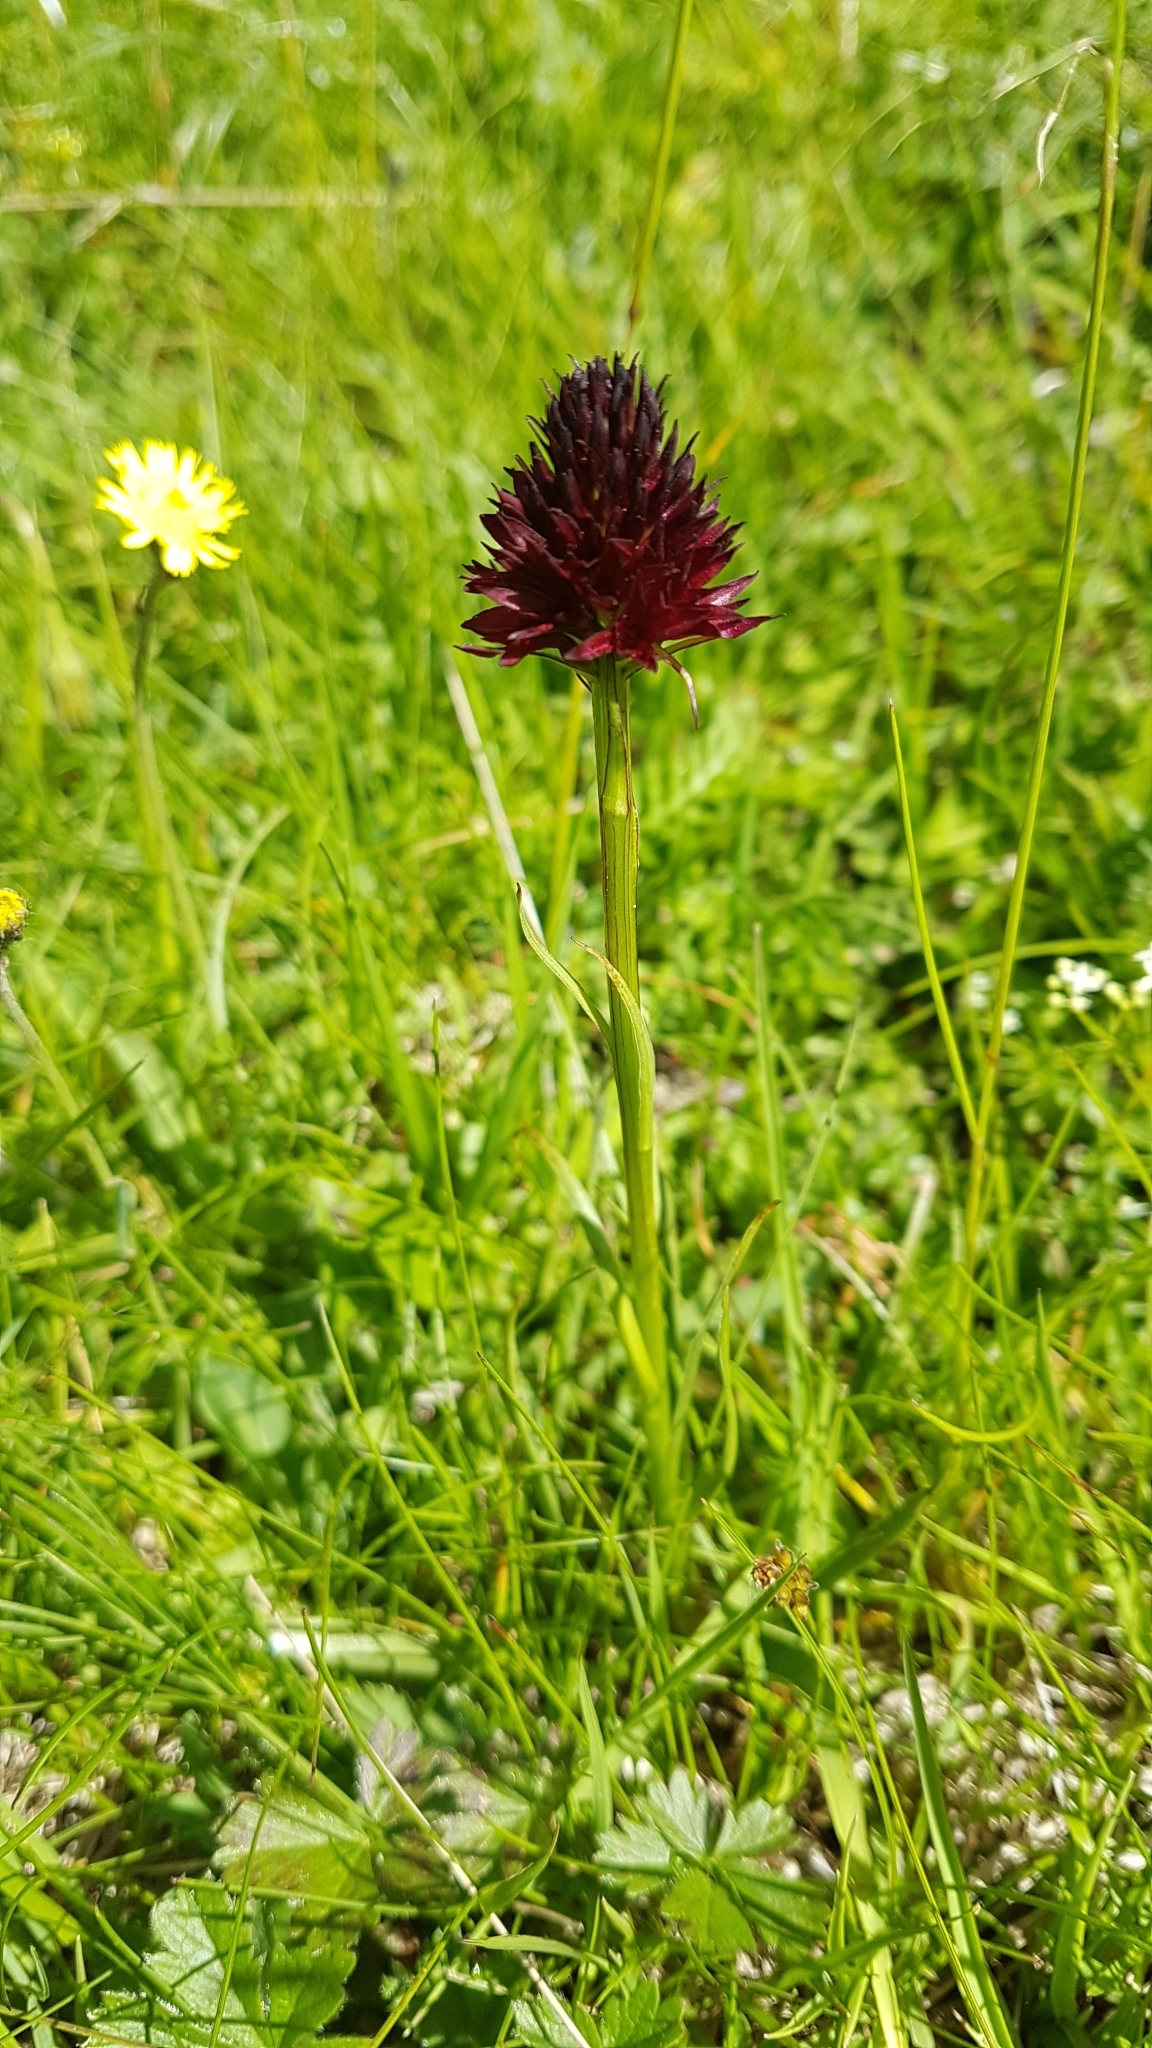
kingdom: Plantae
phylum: Tracheophyta
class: Liliopsida
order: Asparagales
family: Orchidaceae
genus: Gymnadenia
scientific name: Gymnadenia rhellicani
